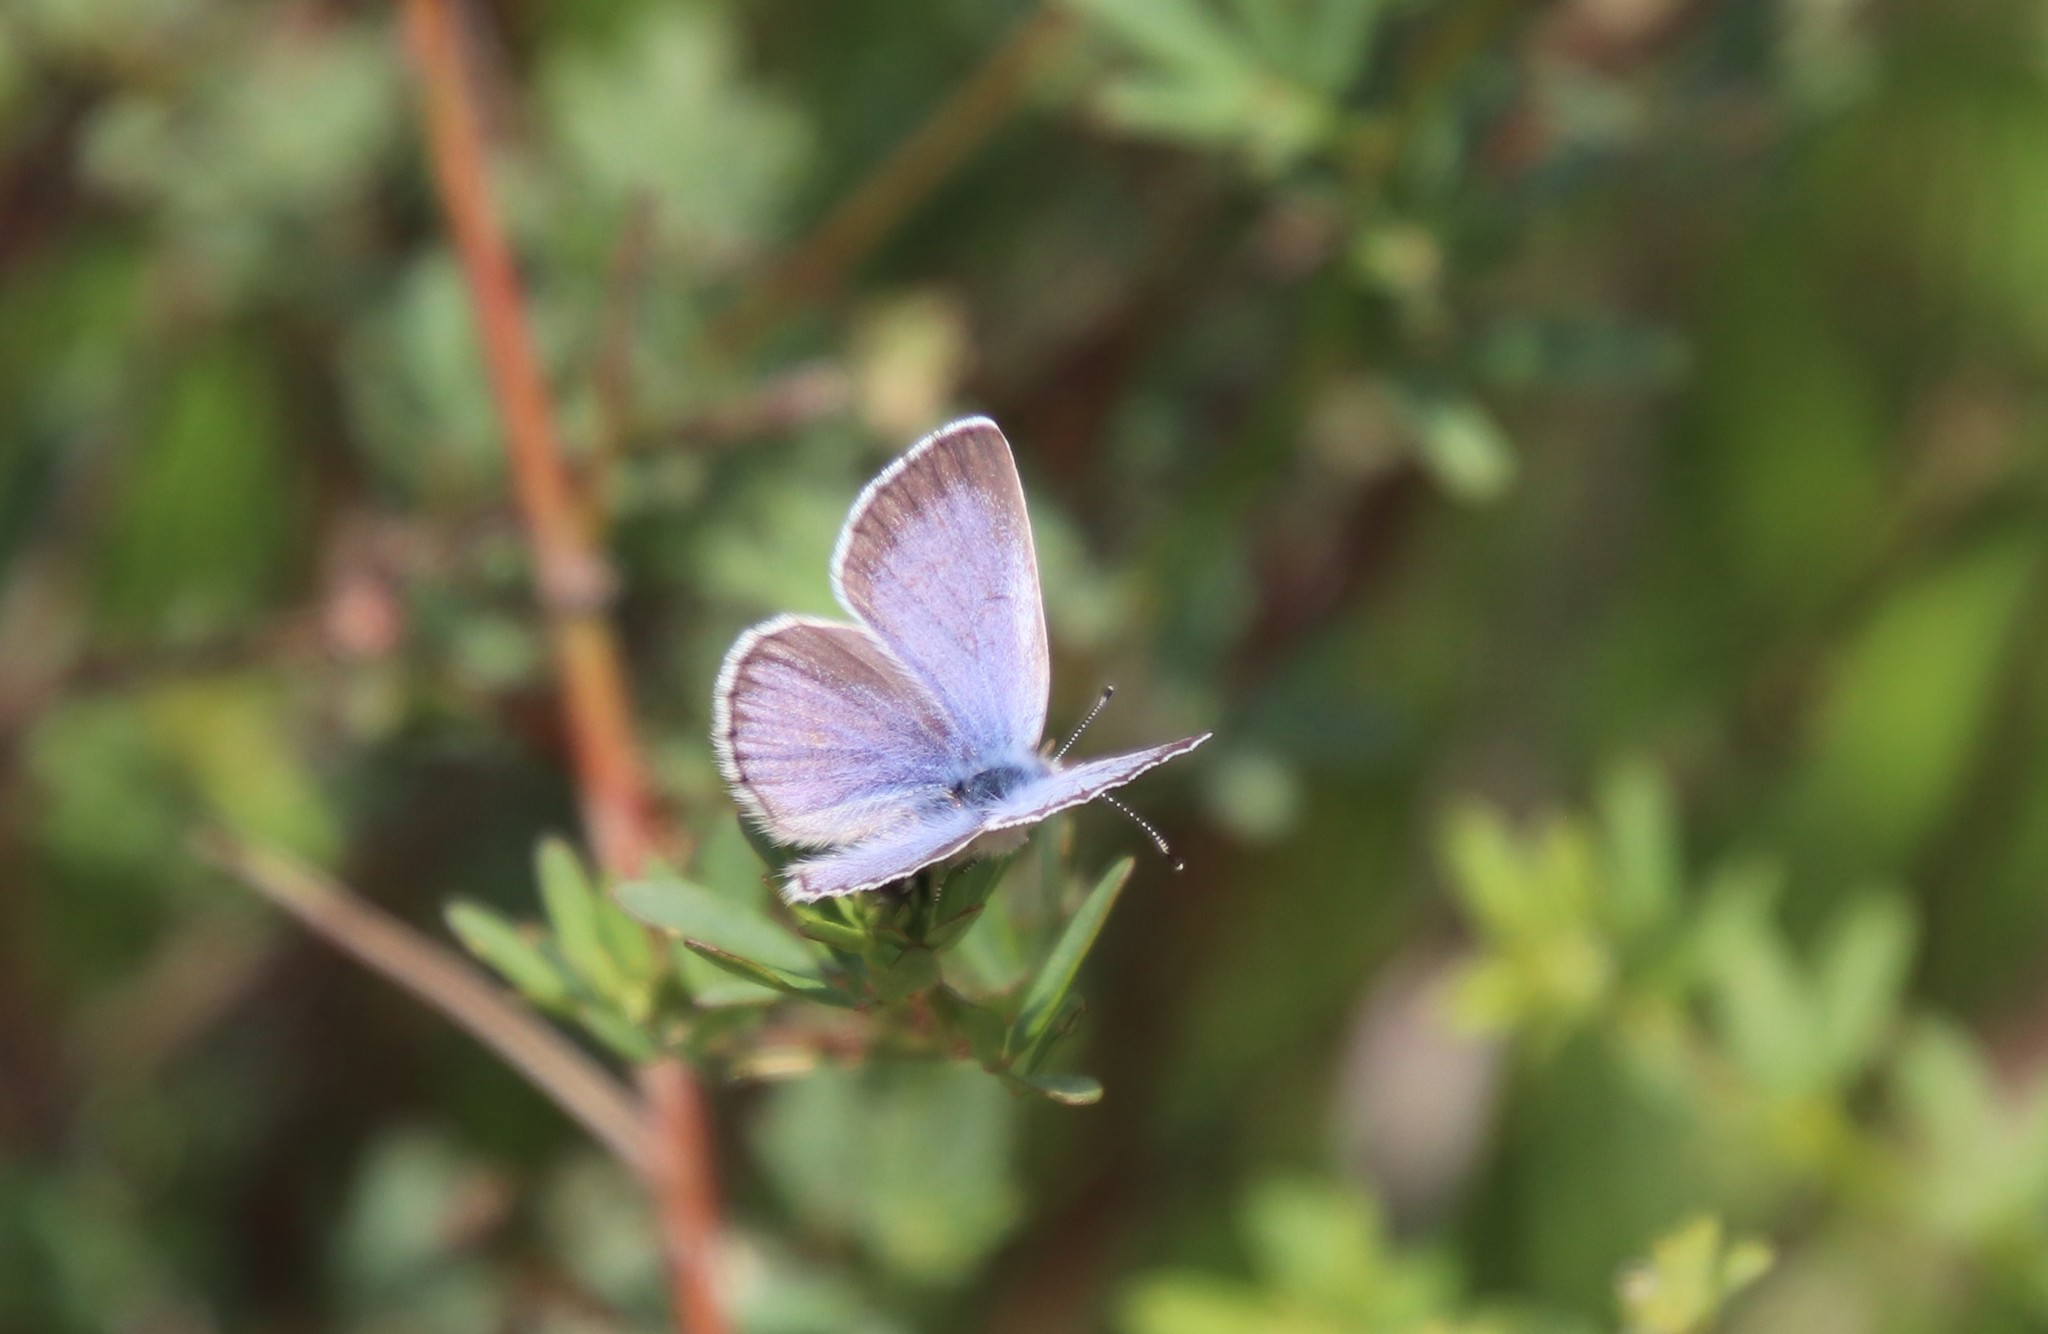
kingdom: Animalia
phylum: Arthropoda
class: Insecta
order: Lepidoptera
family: Lycaenidae
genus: Glaucopsyche
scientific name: Glaucopsyche lygdamus
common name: Silvery blue
